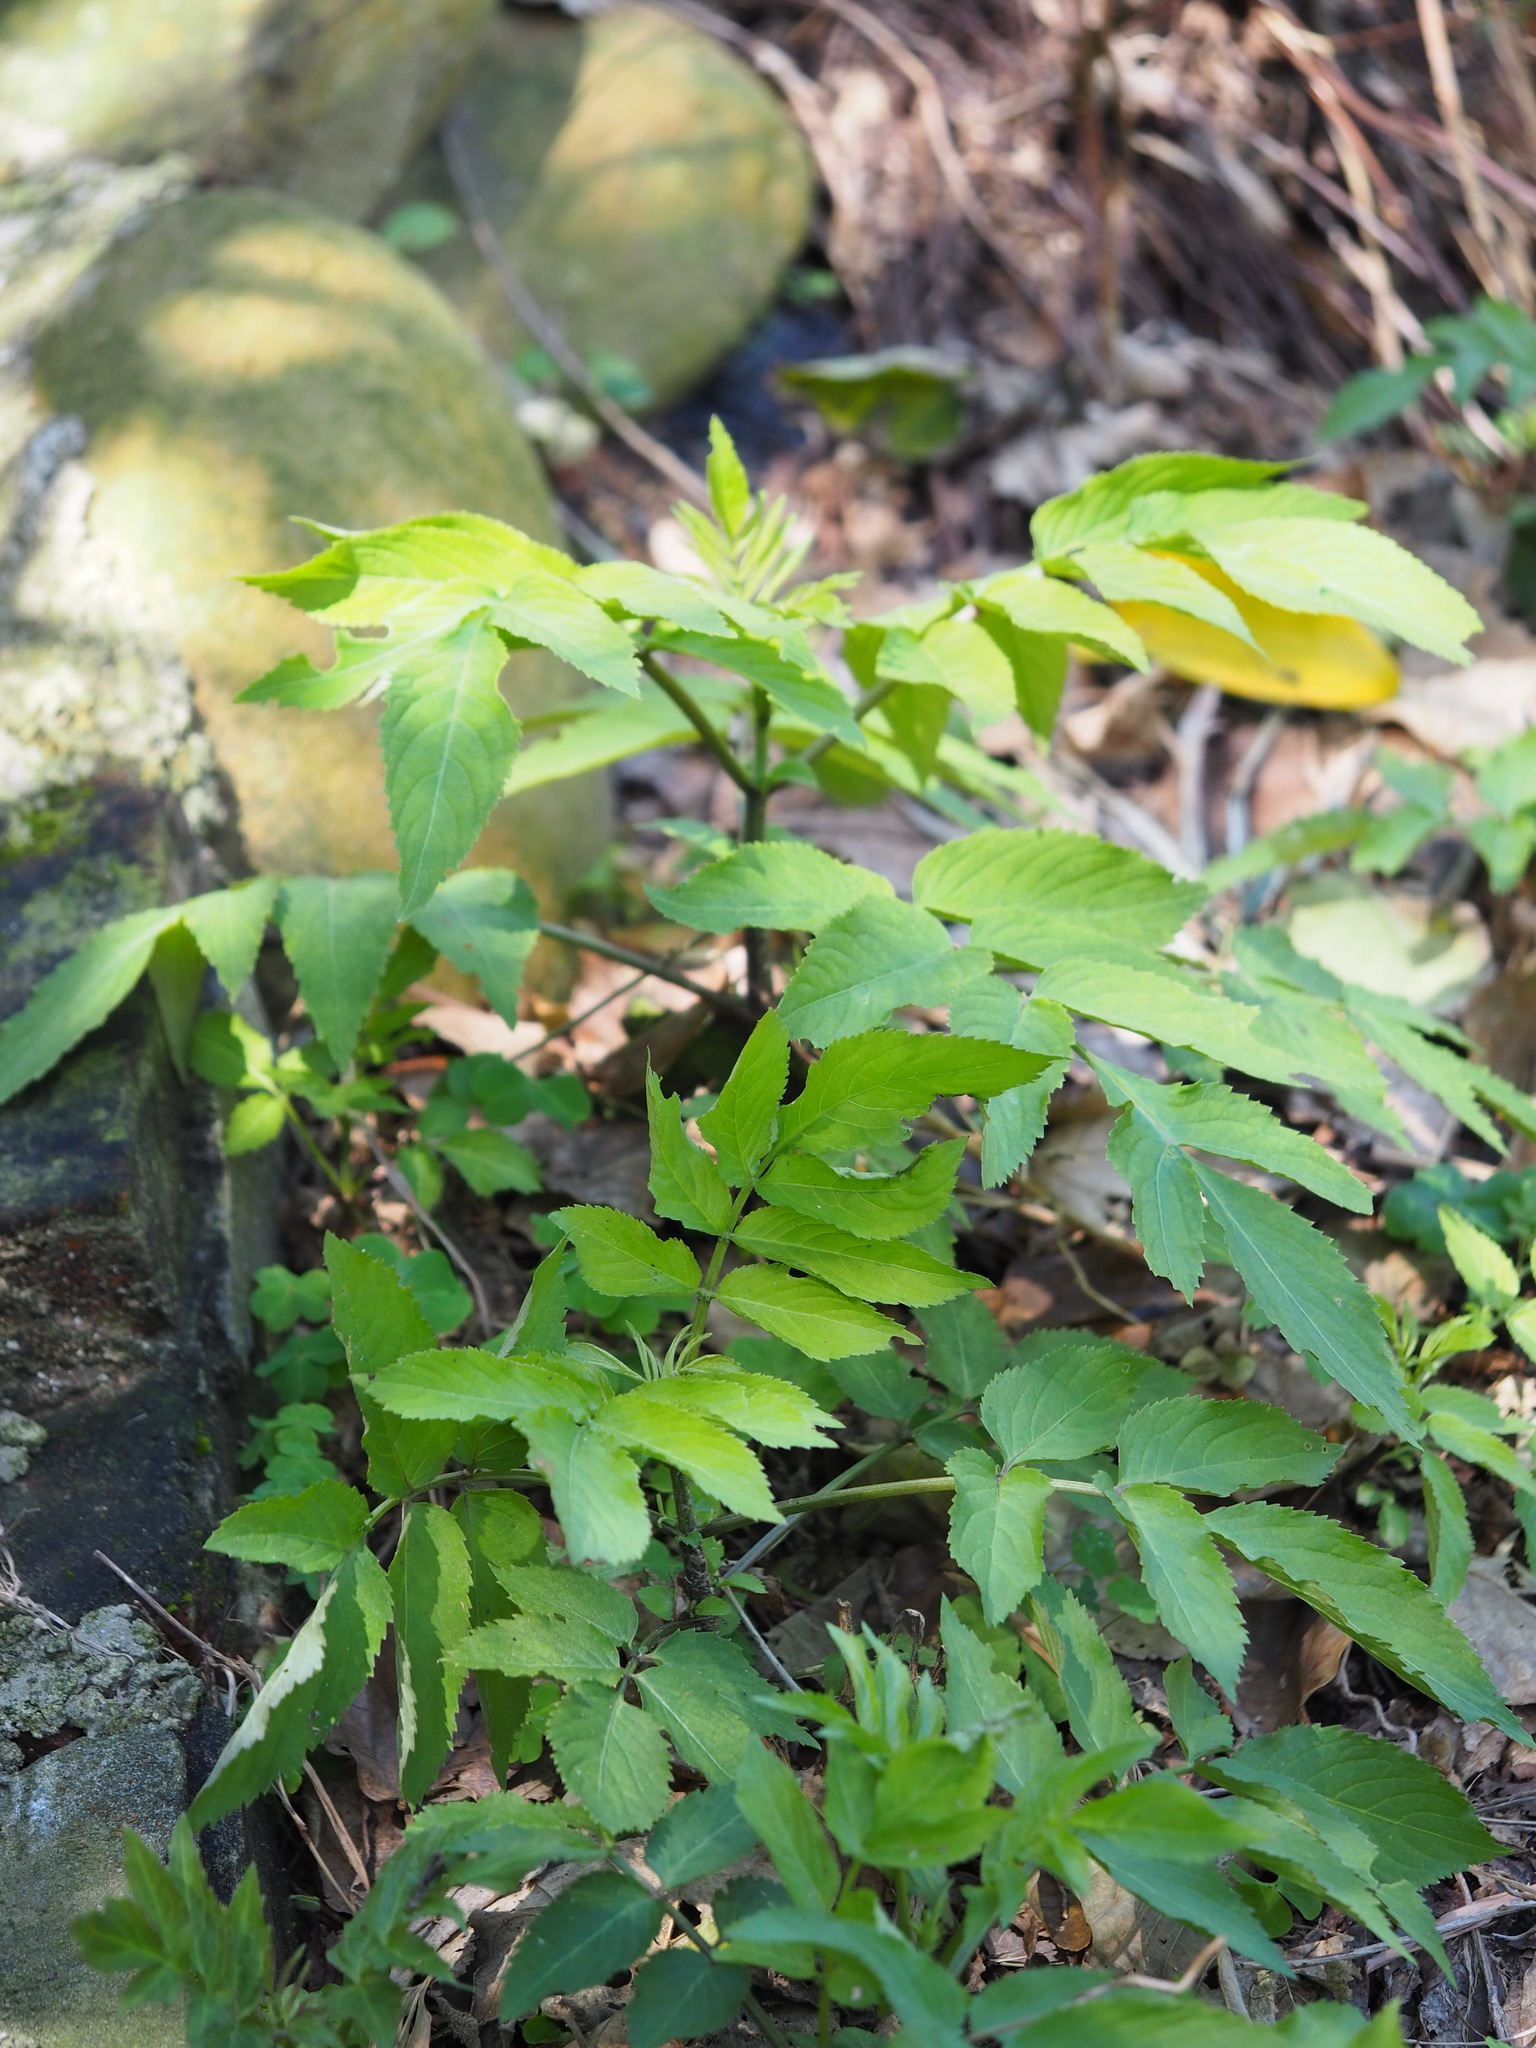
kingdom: Plantae
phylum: Tracheophyta
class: Magnoliopsida
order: Dipsacales
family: Viburnaceae
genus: Sambucus
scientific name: Sambucus javanica
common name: Chinese elder
